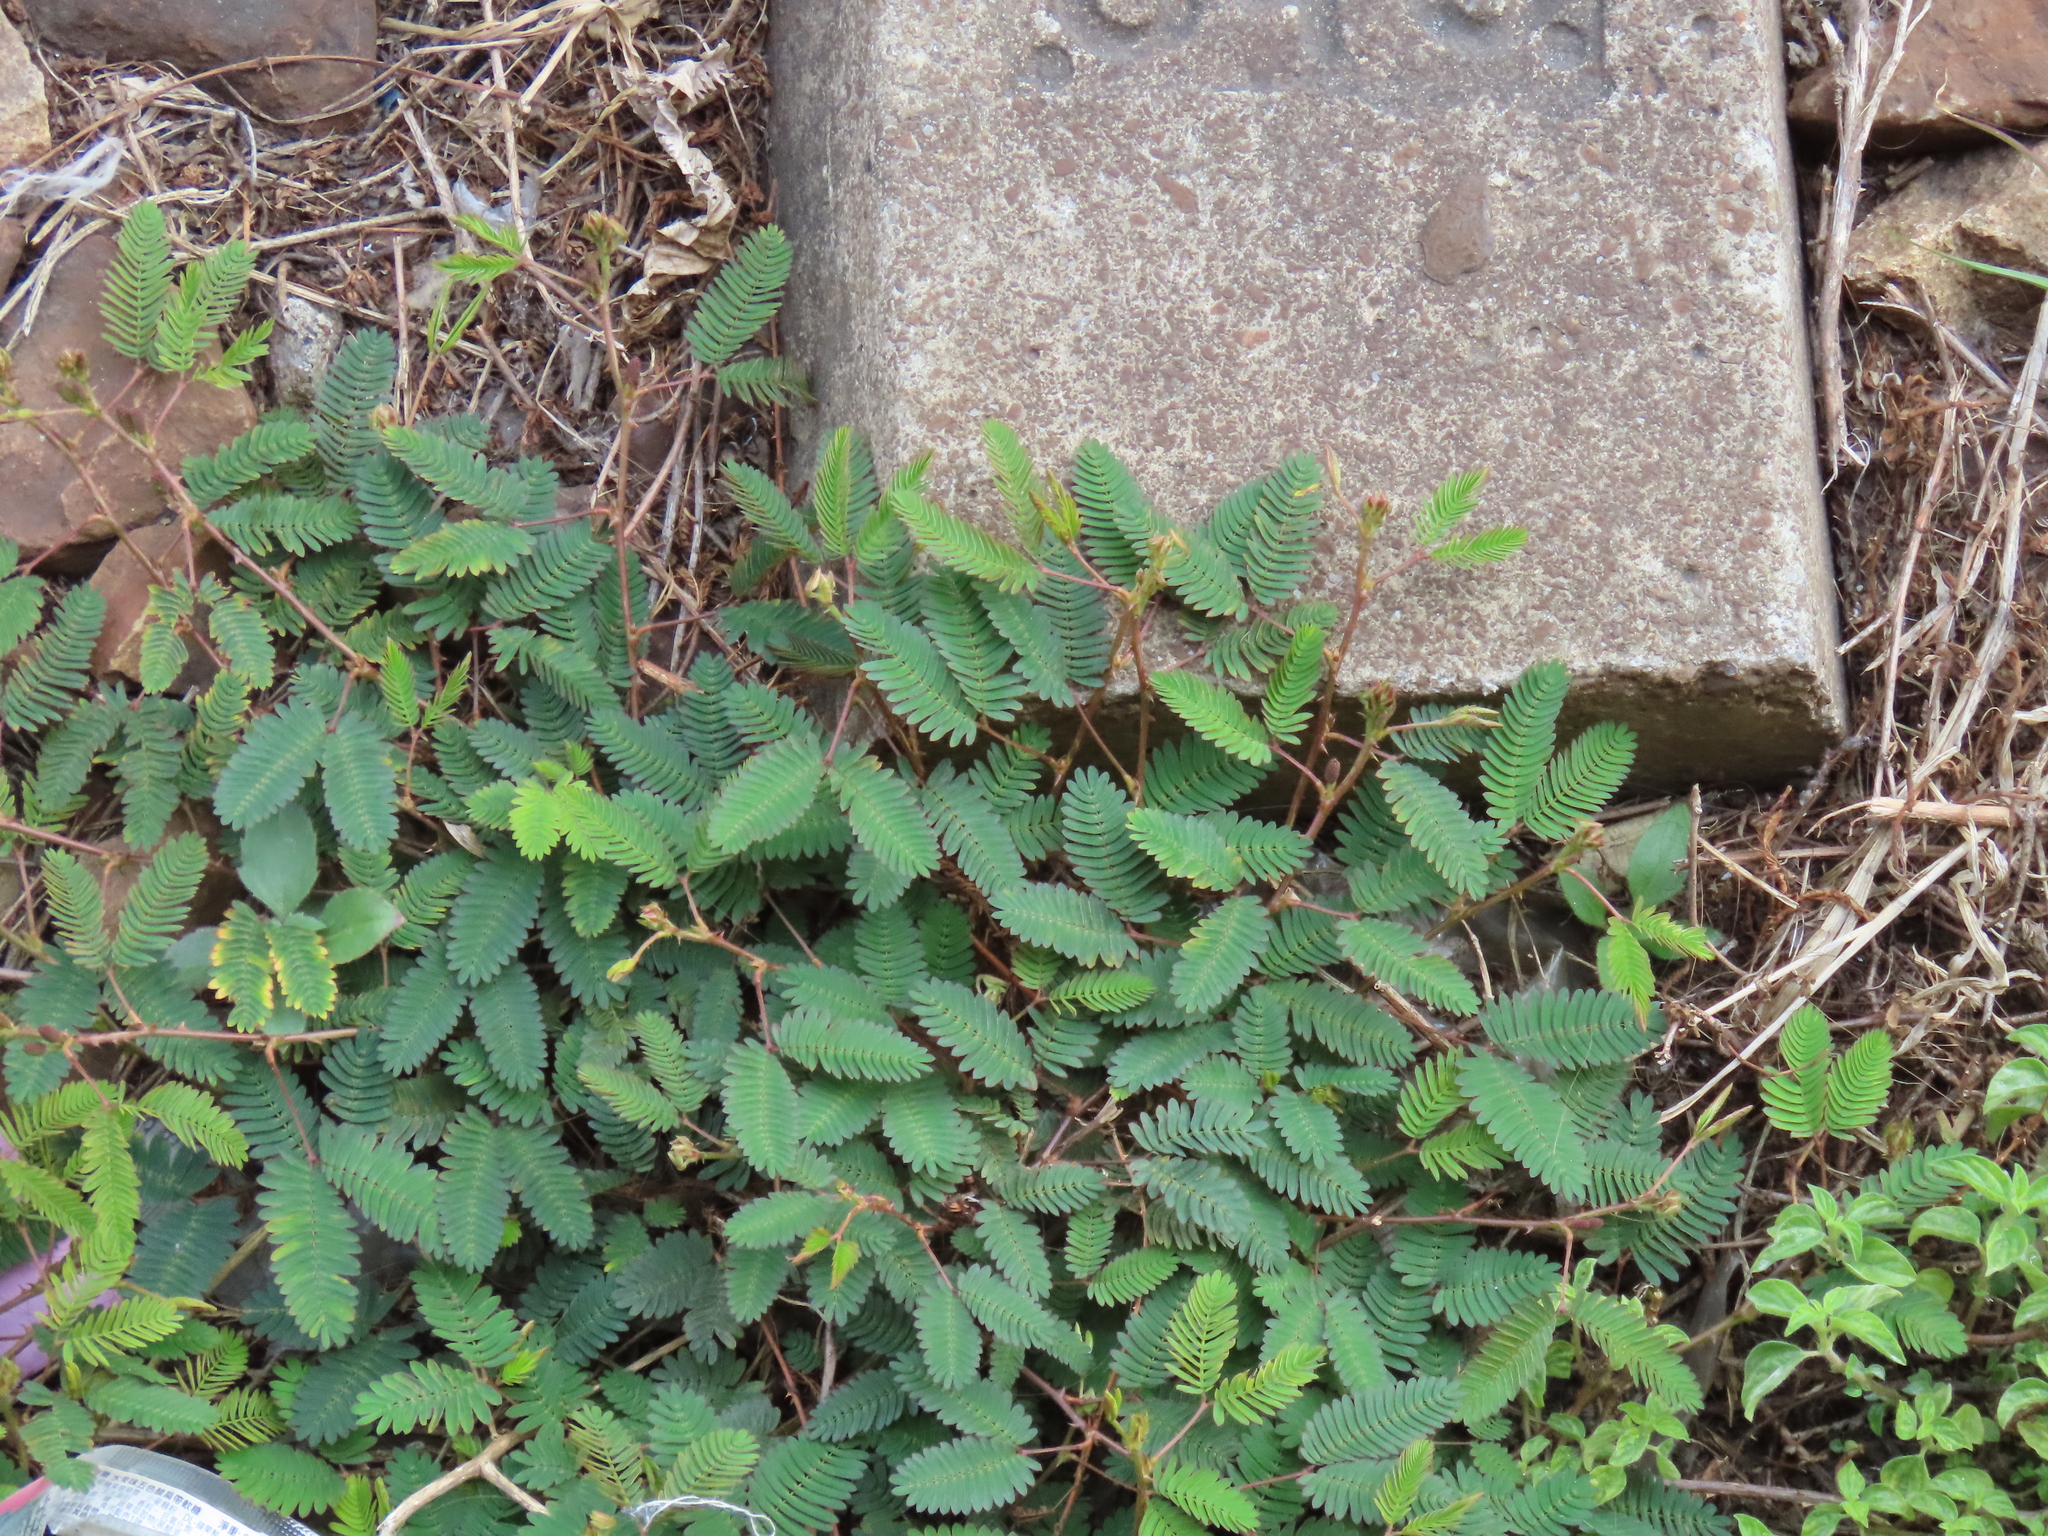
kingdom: Plantae
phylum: Tracheophyta
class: Magnoliopsida
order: Fabales
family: Fabaceae
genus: Mimosa
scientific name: Mimosa pudica
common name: Sensitive plant
